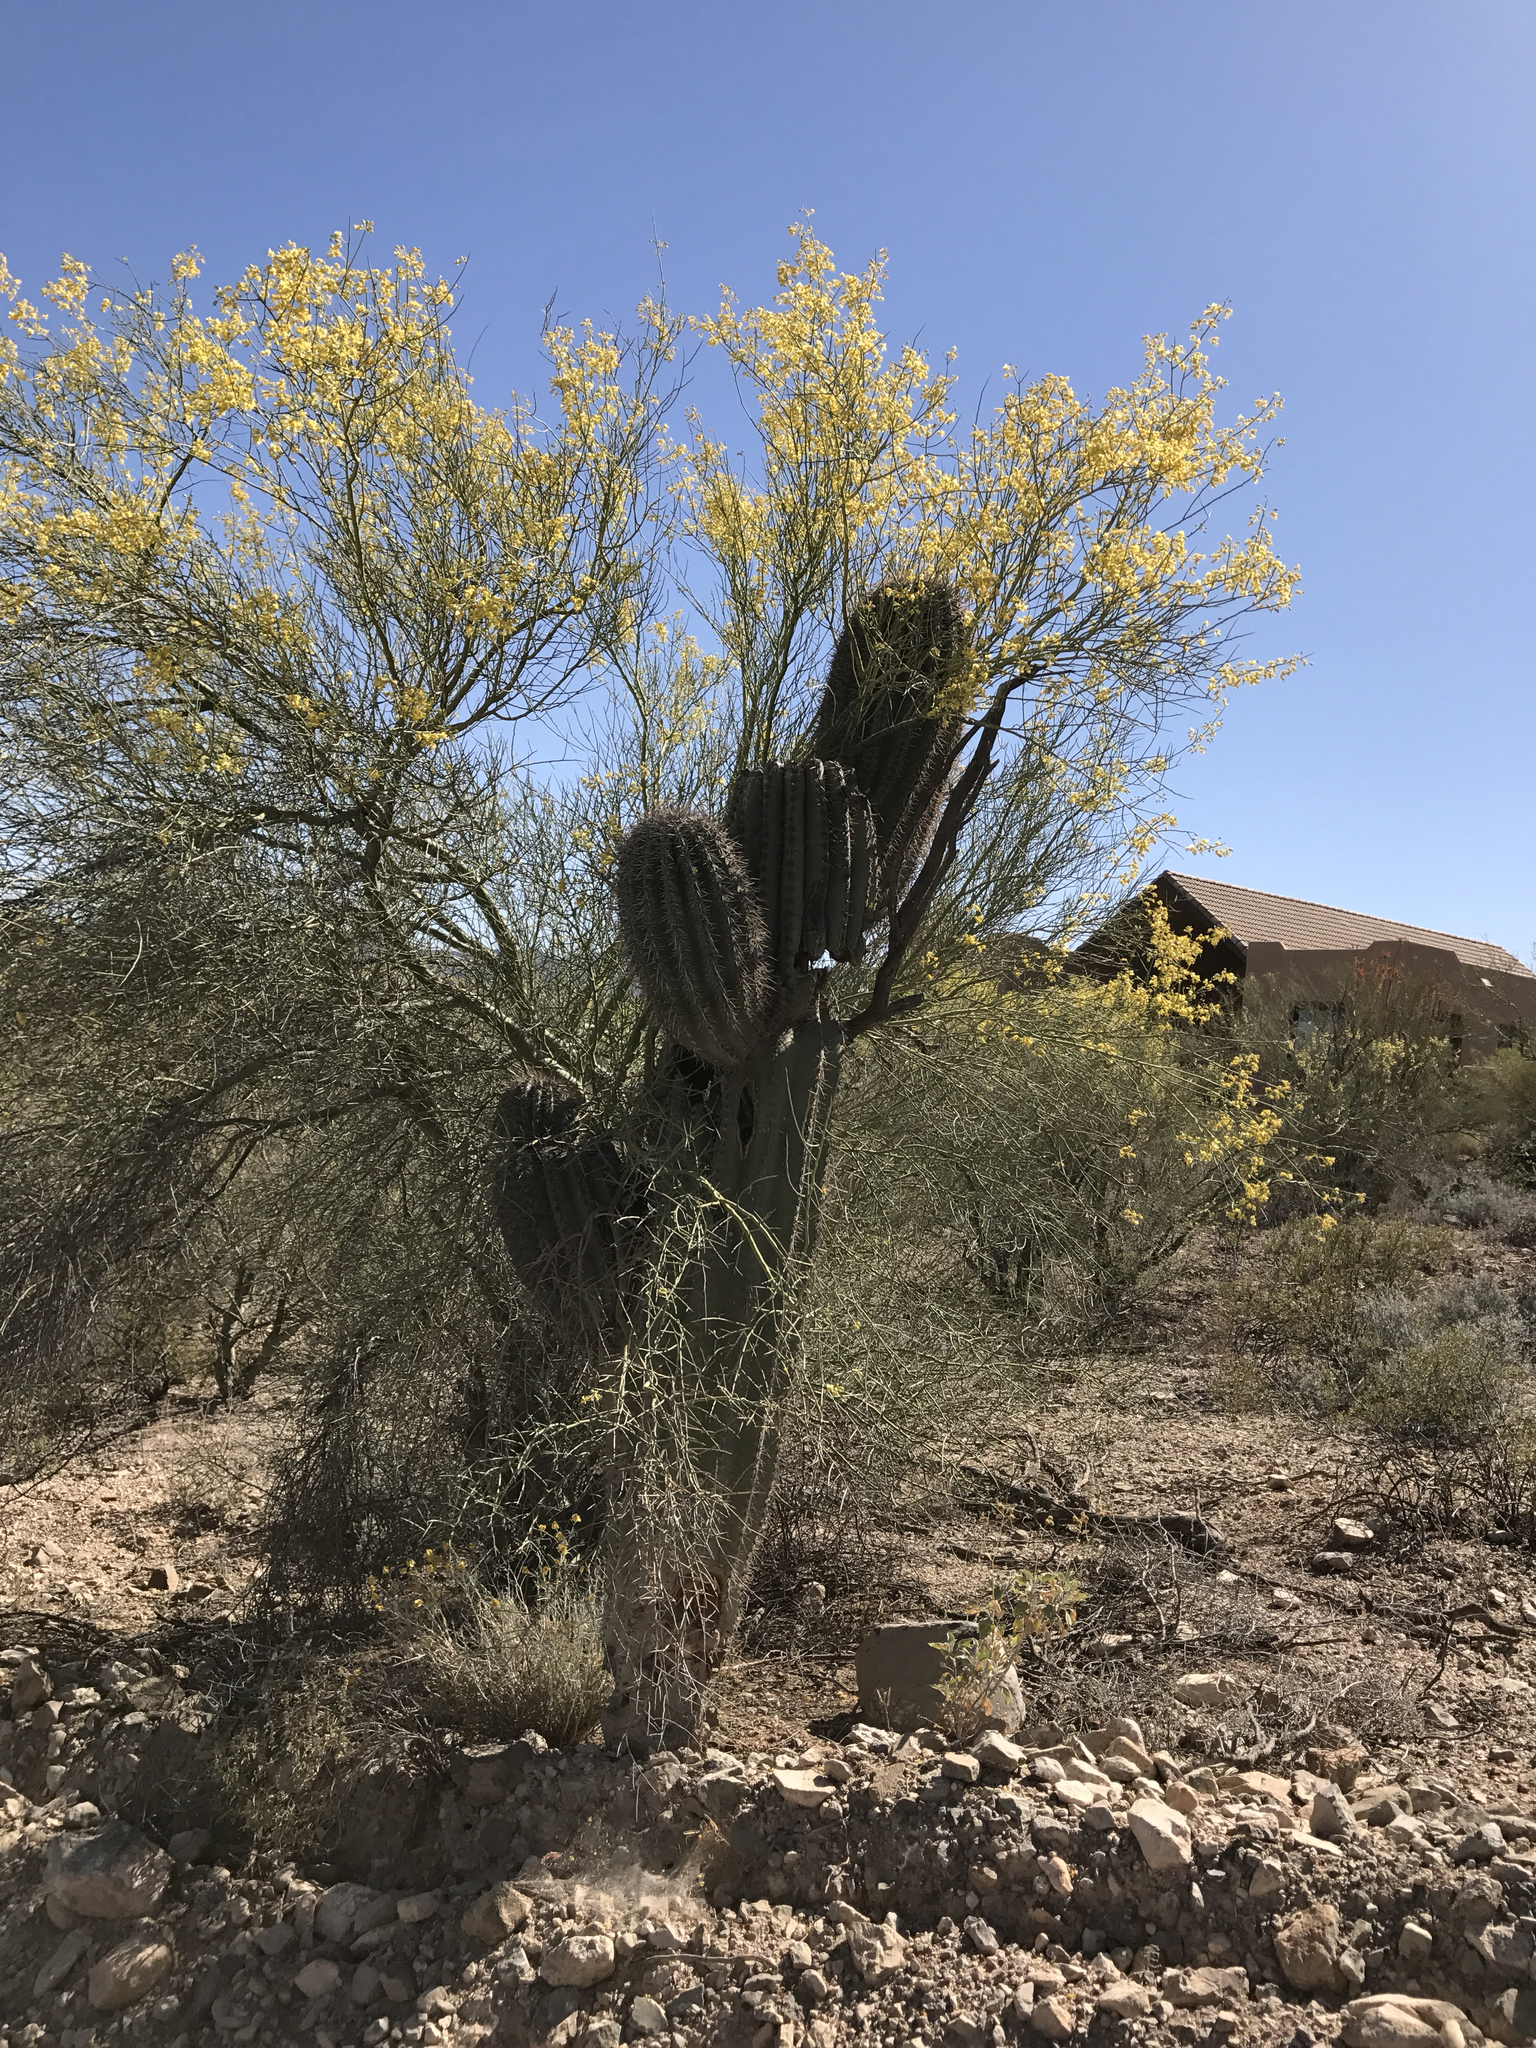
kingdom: Plantae
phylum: Tracheophyta
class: Magnoliopsida
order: Caryophyllales
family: Cactaceae
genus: Carnegiea
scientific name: Carnegiea gigantea
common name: Saguaro
